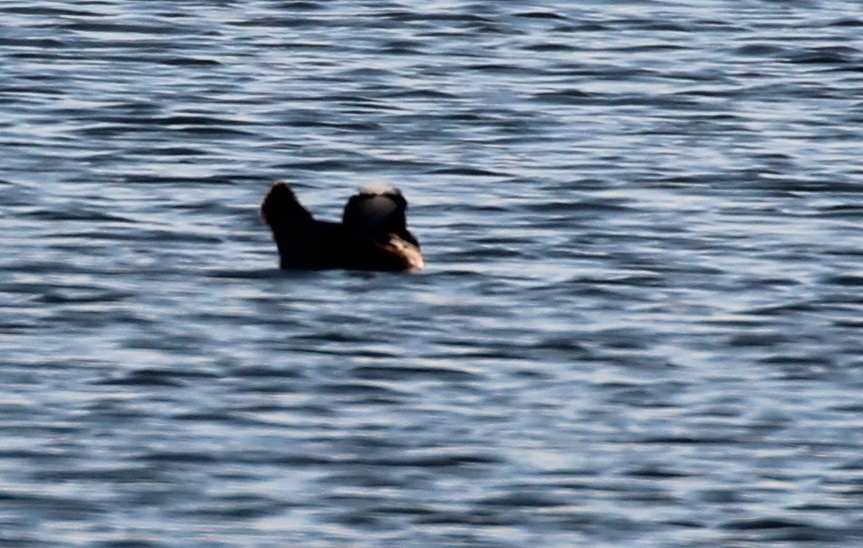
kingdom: Animalia
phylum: Chordata
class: Aves
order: Anseriformes
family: Anatidae
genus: Lophodytes
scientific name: Lophodytes cucullatus
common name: Hooded merganser
